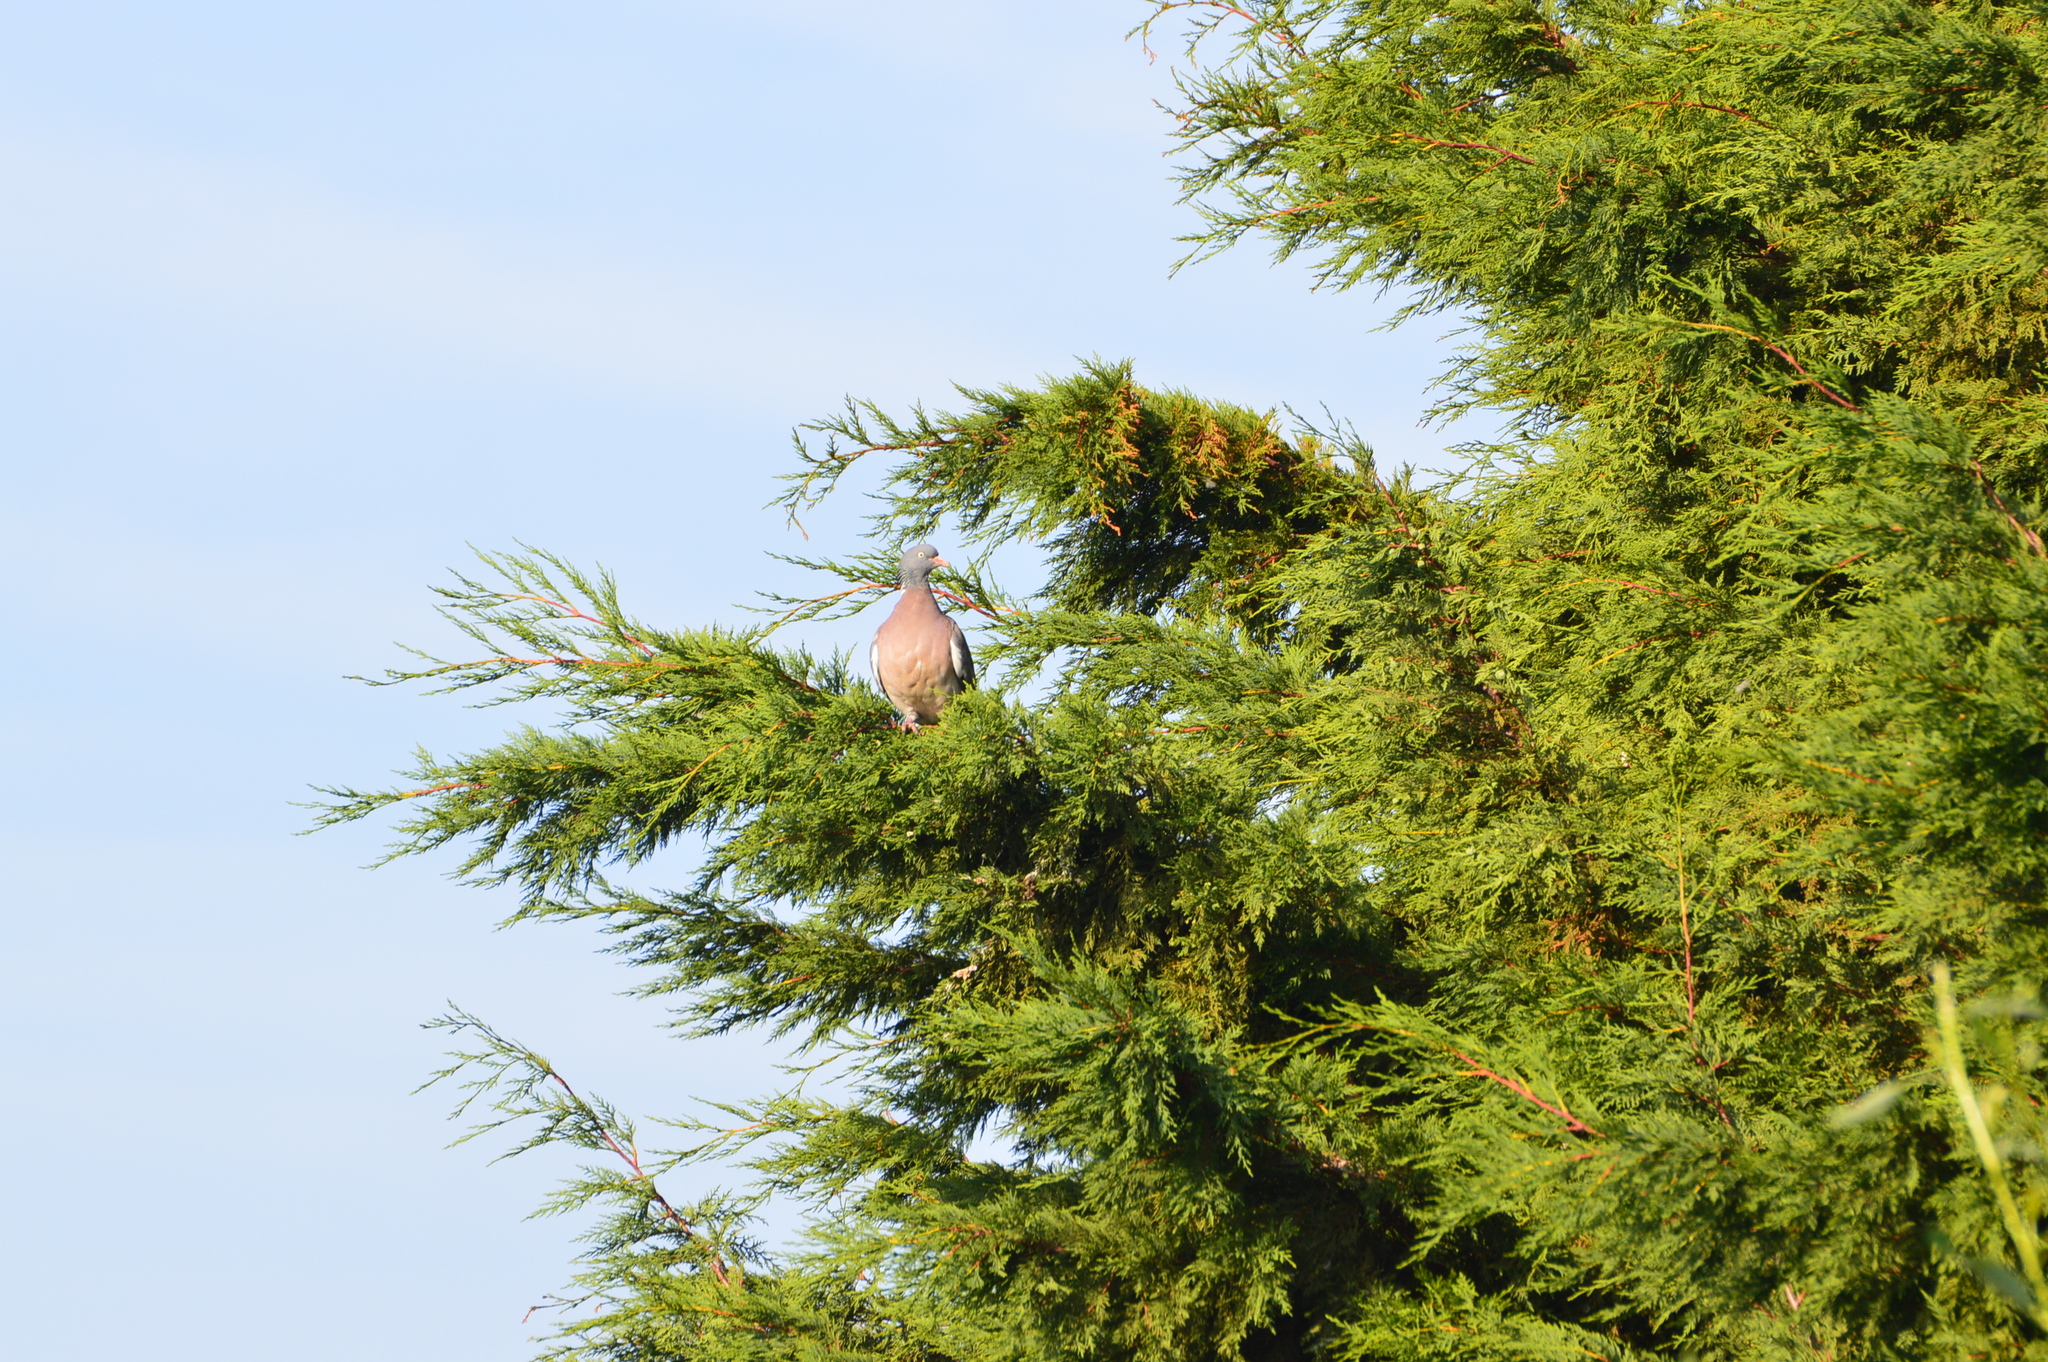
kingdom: Animalia
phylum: Chordata
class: Aves
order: Columbiformes
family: Columbidae
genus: Columba
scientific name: Columba palumbus
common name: Common wood pigeon
